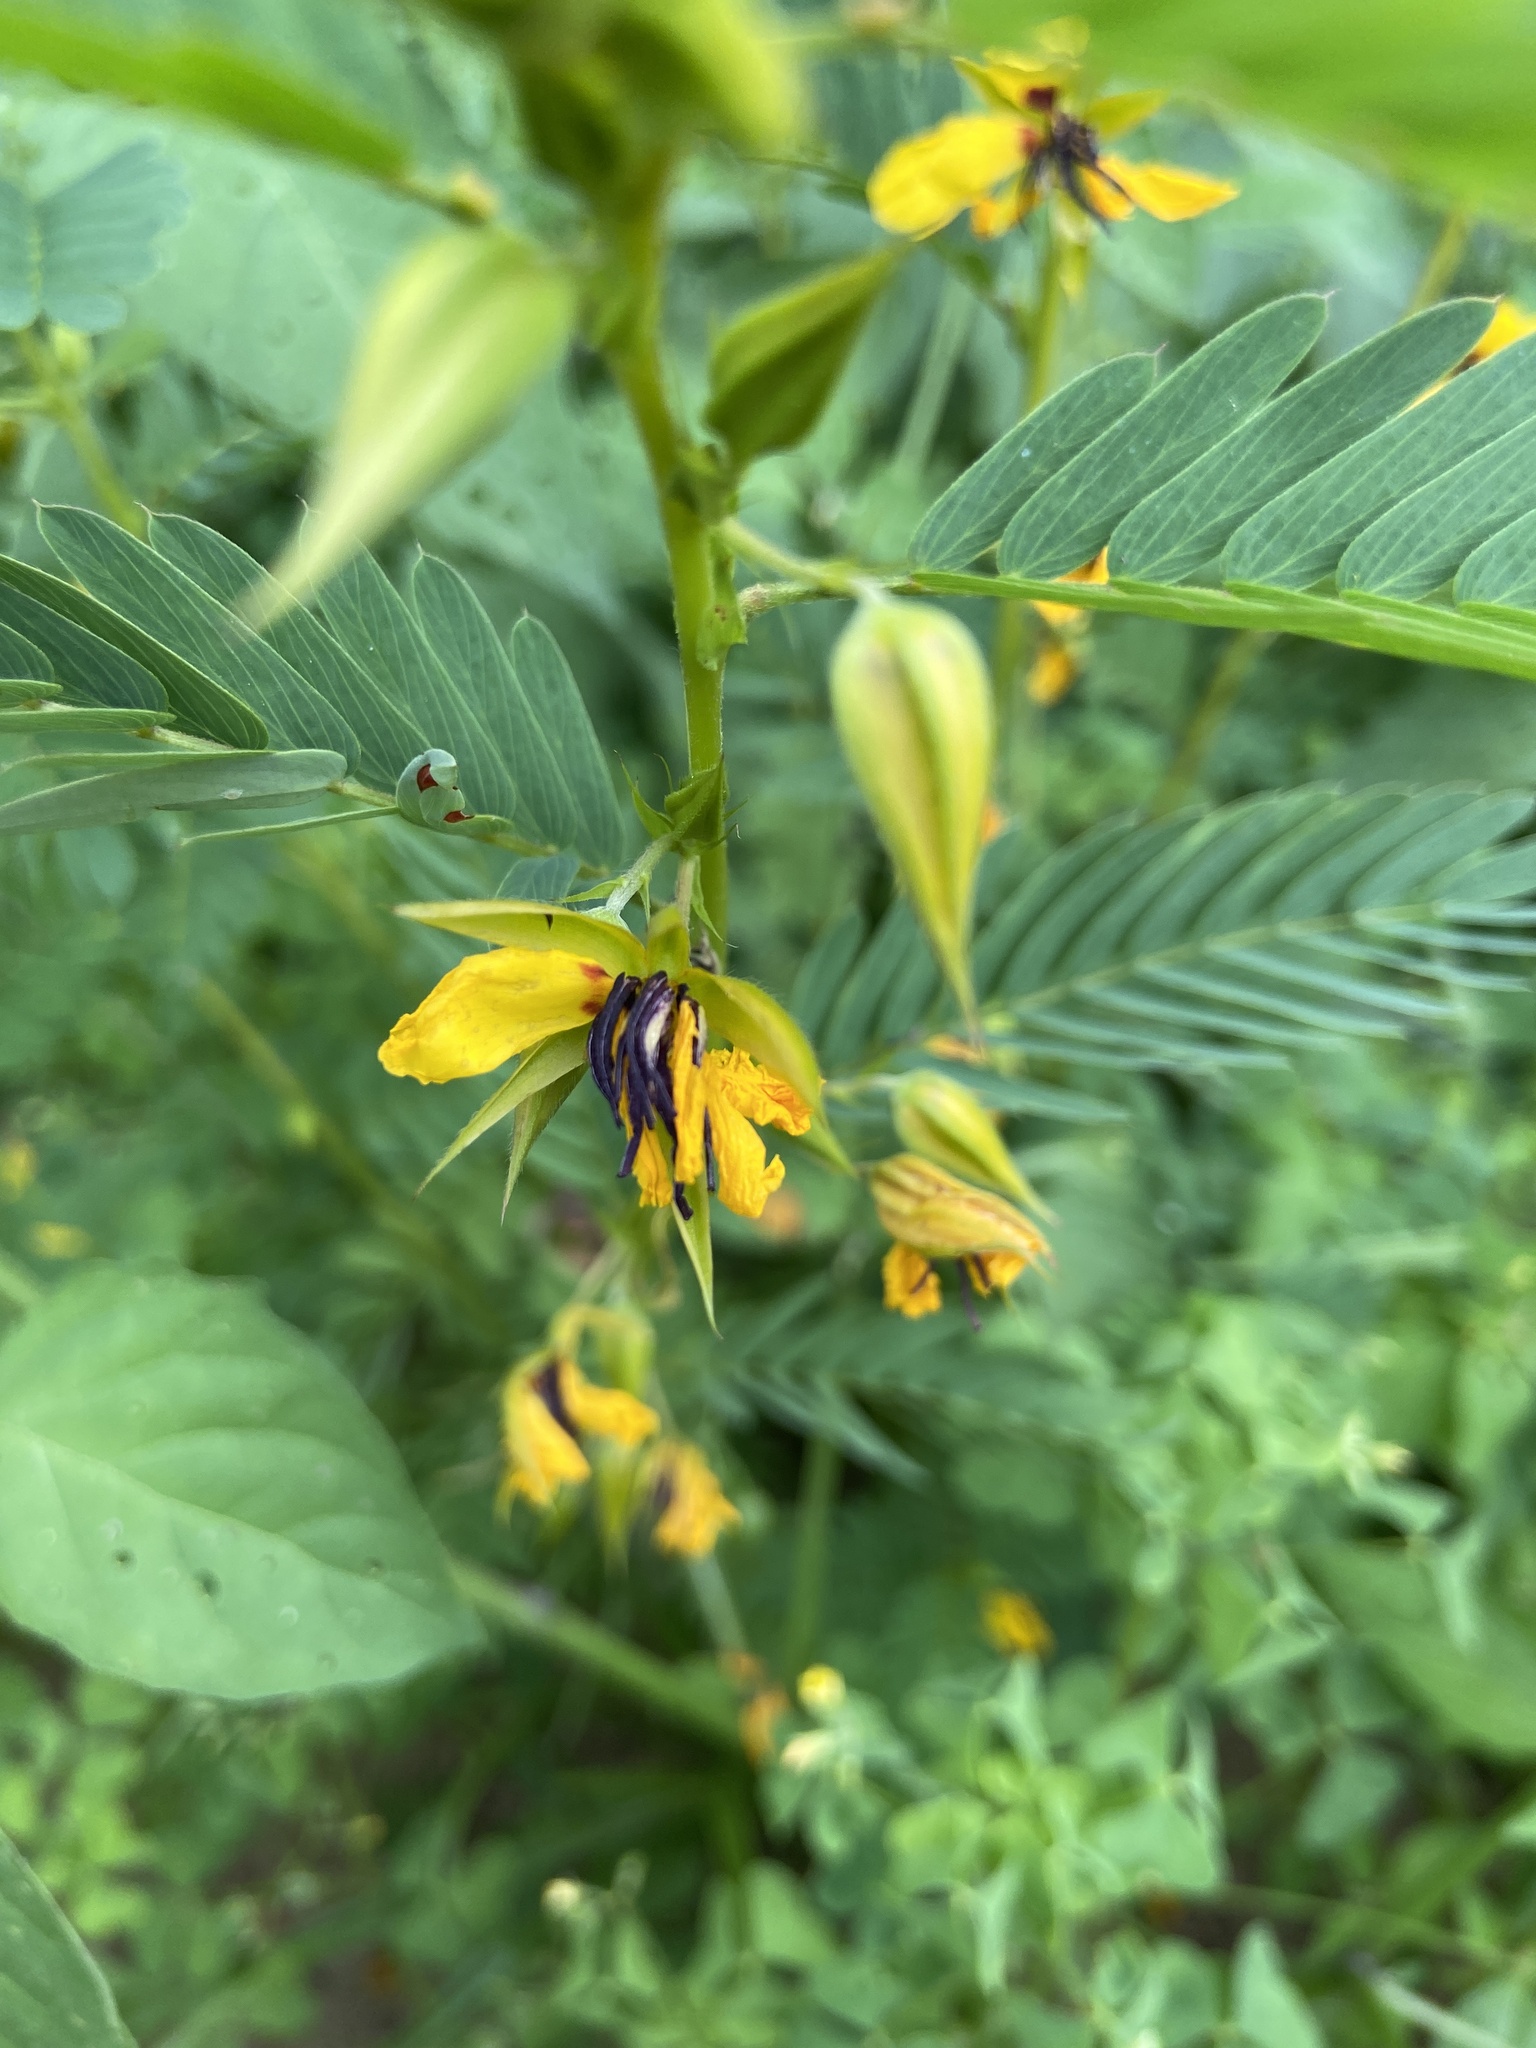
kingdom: Plantae
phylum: Tracheophyta
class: Magnoliopsida
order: Fabales
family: Fabaceae
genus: Chamaecrista
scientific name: Chamaecrista fasciculata
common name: Golden cassia
